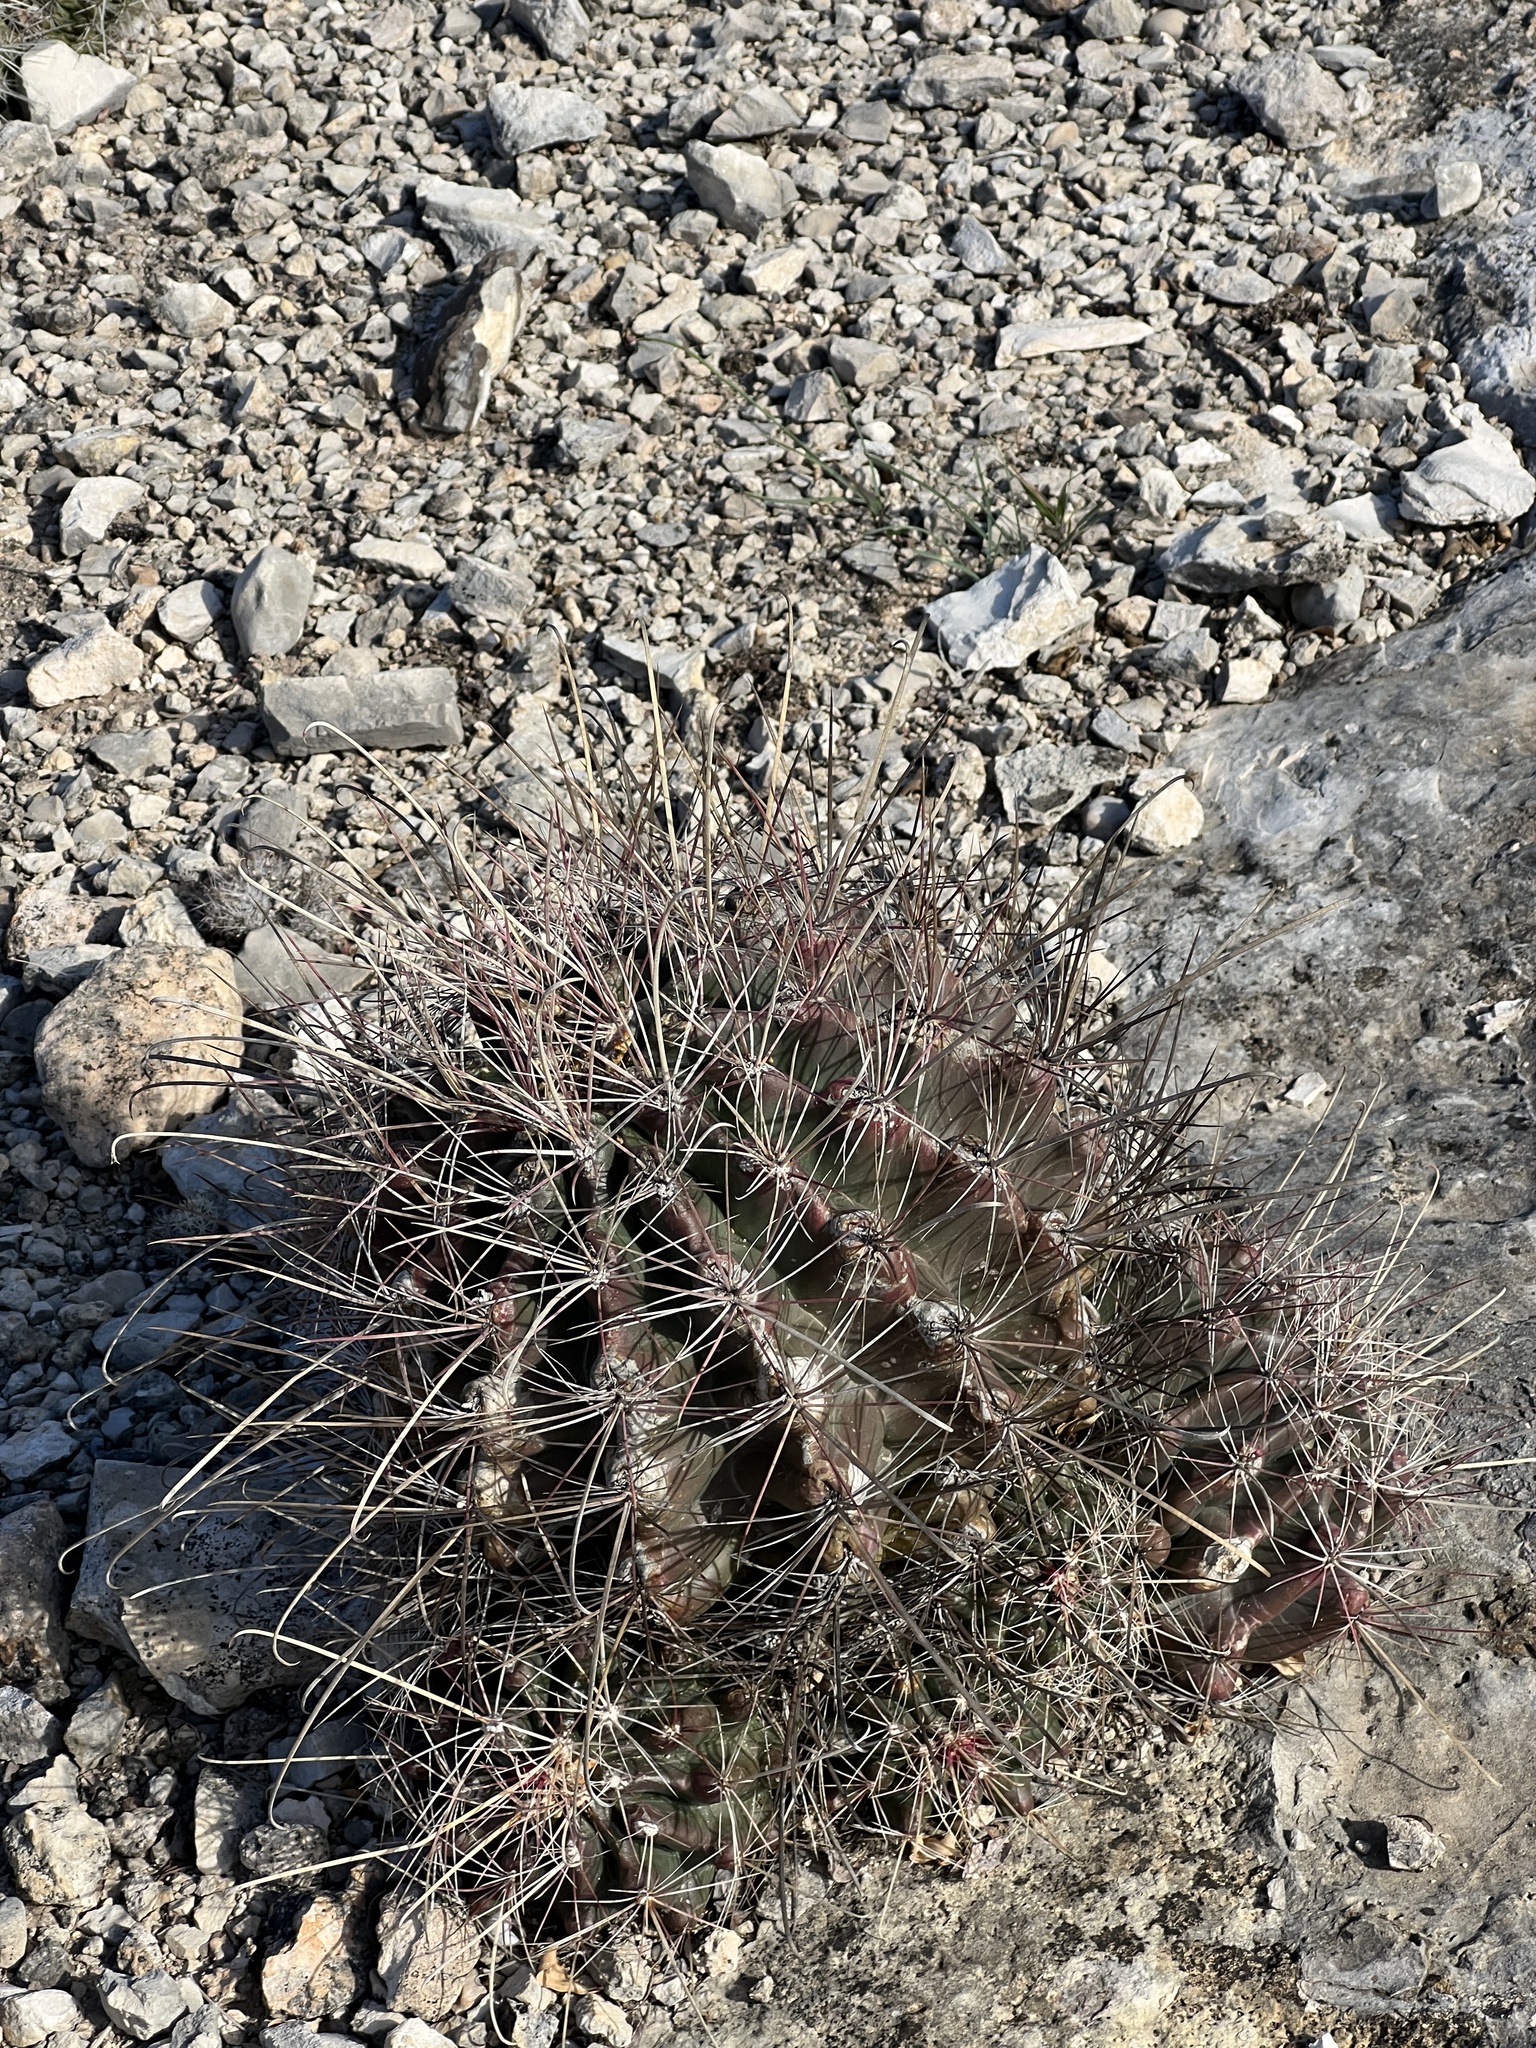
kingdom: Plantae
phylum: Tracheophyta
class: Magnoliopsida
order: Caryophyllales
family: Cactaceae
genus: Bisnaga
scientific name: Bisnaga hamatacantha
